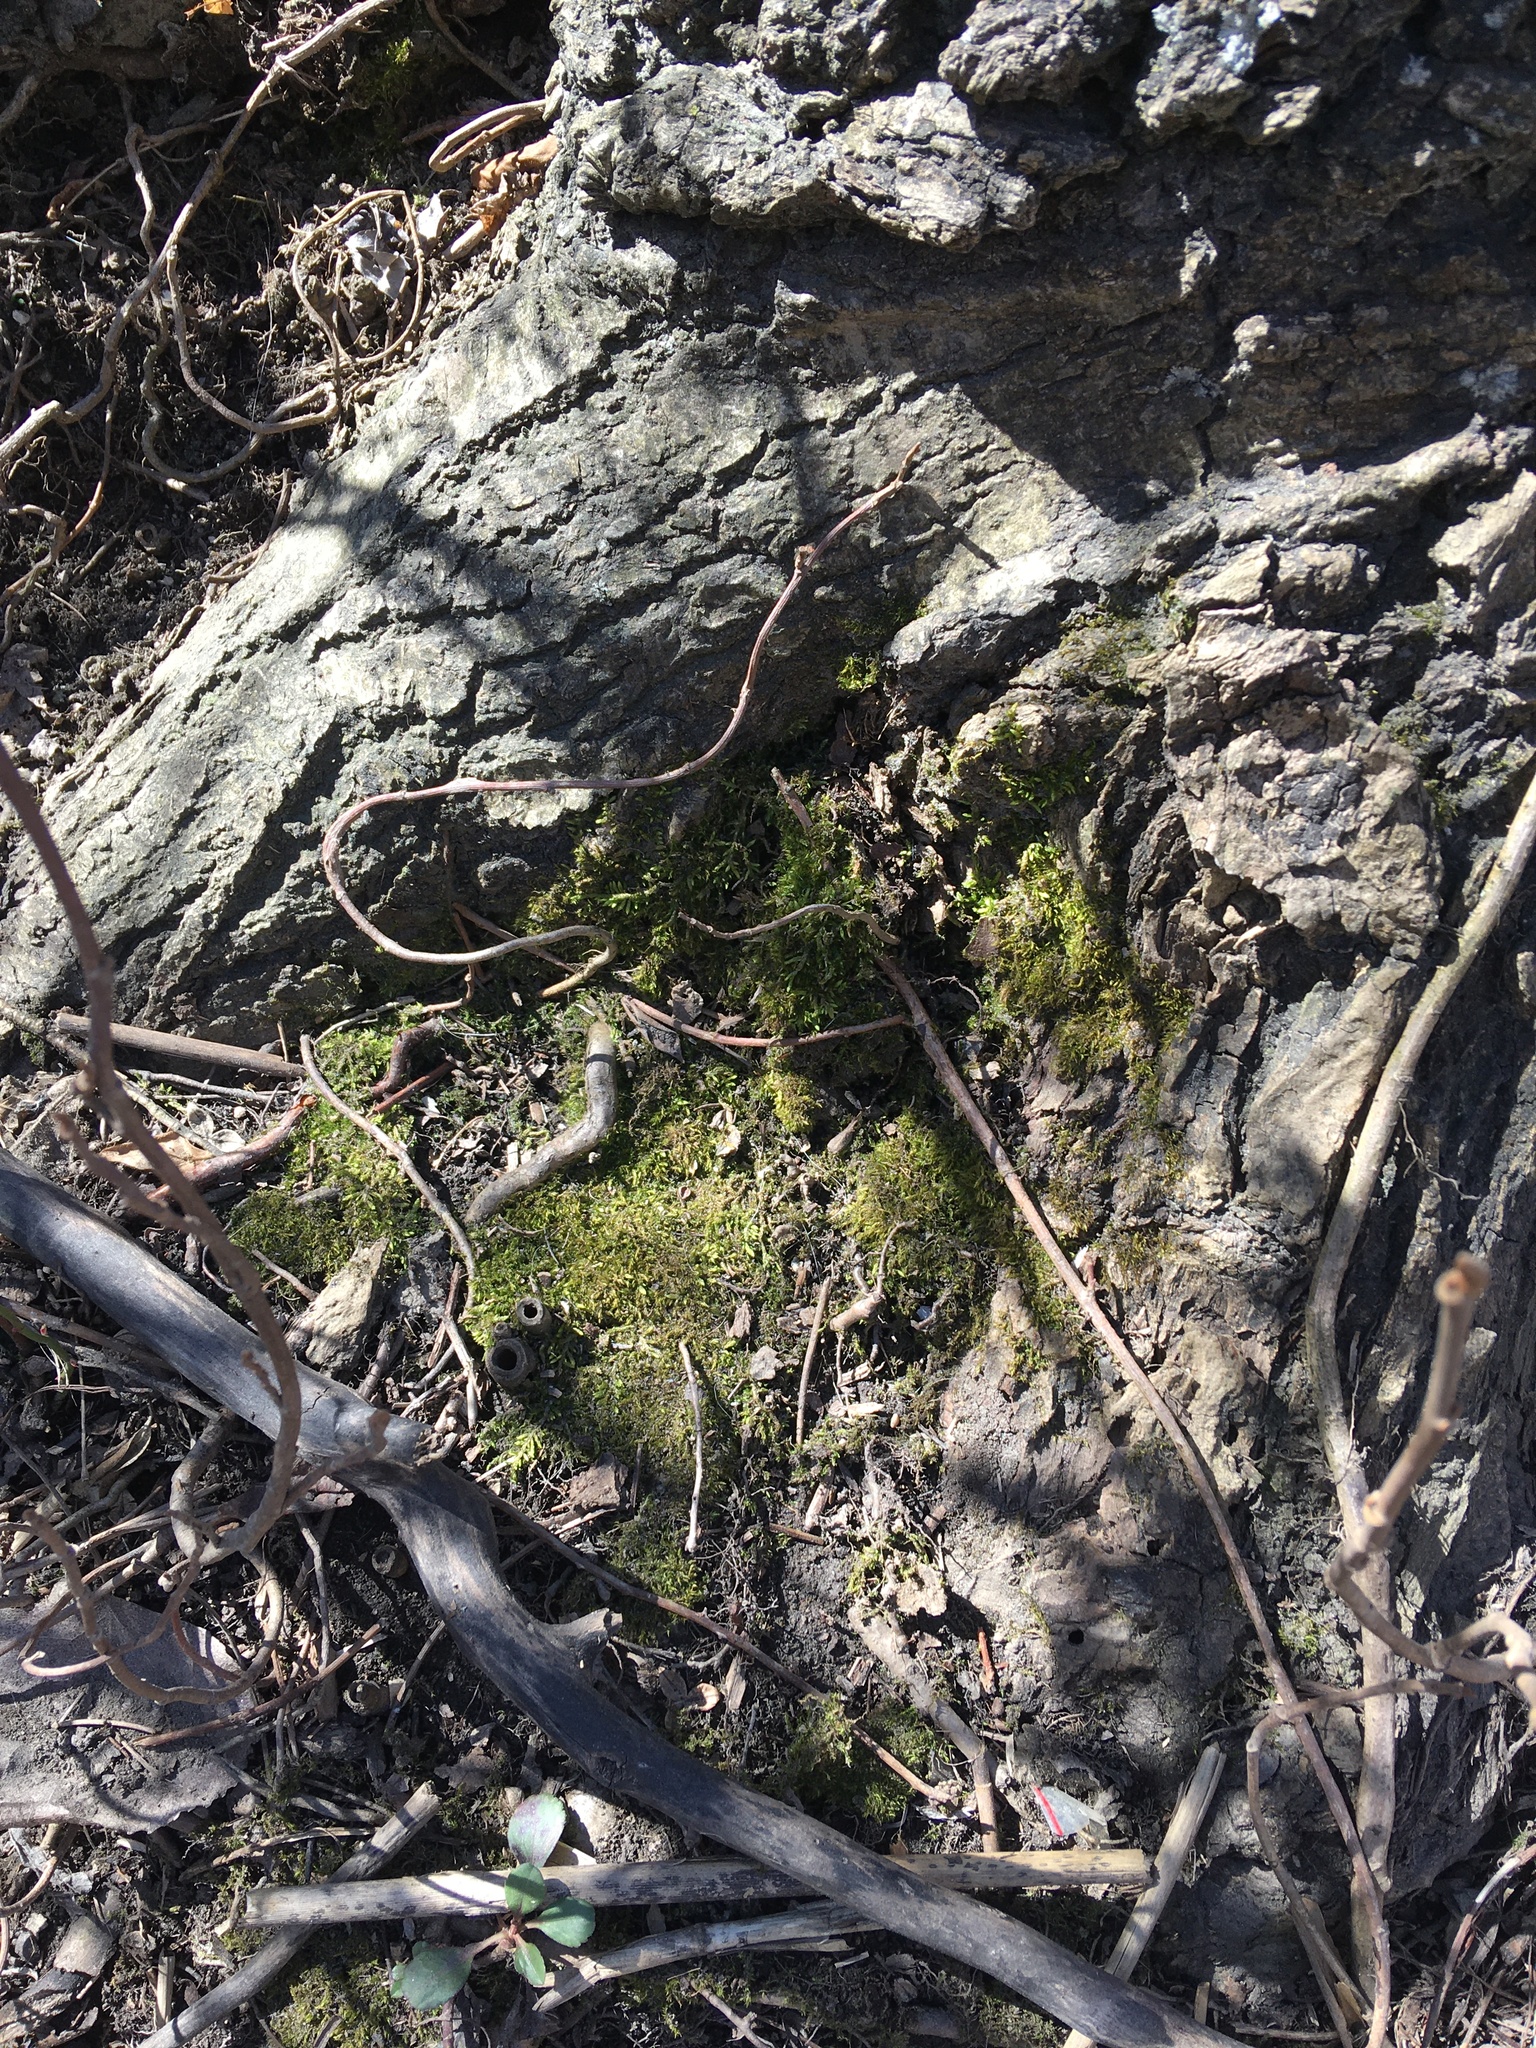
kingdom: Plantae
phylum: Bryophyta
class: Bryopsida
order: Hypnales
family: Entodontaceae
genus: Entodon
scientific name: Entodon seductrix
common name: Round-stemmed entodon moss
